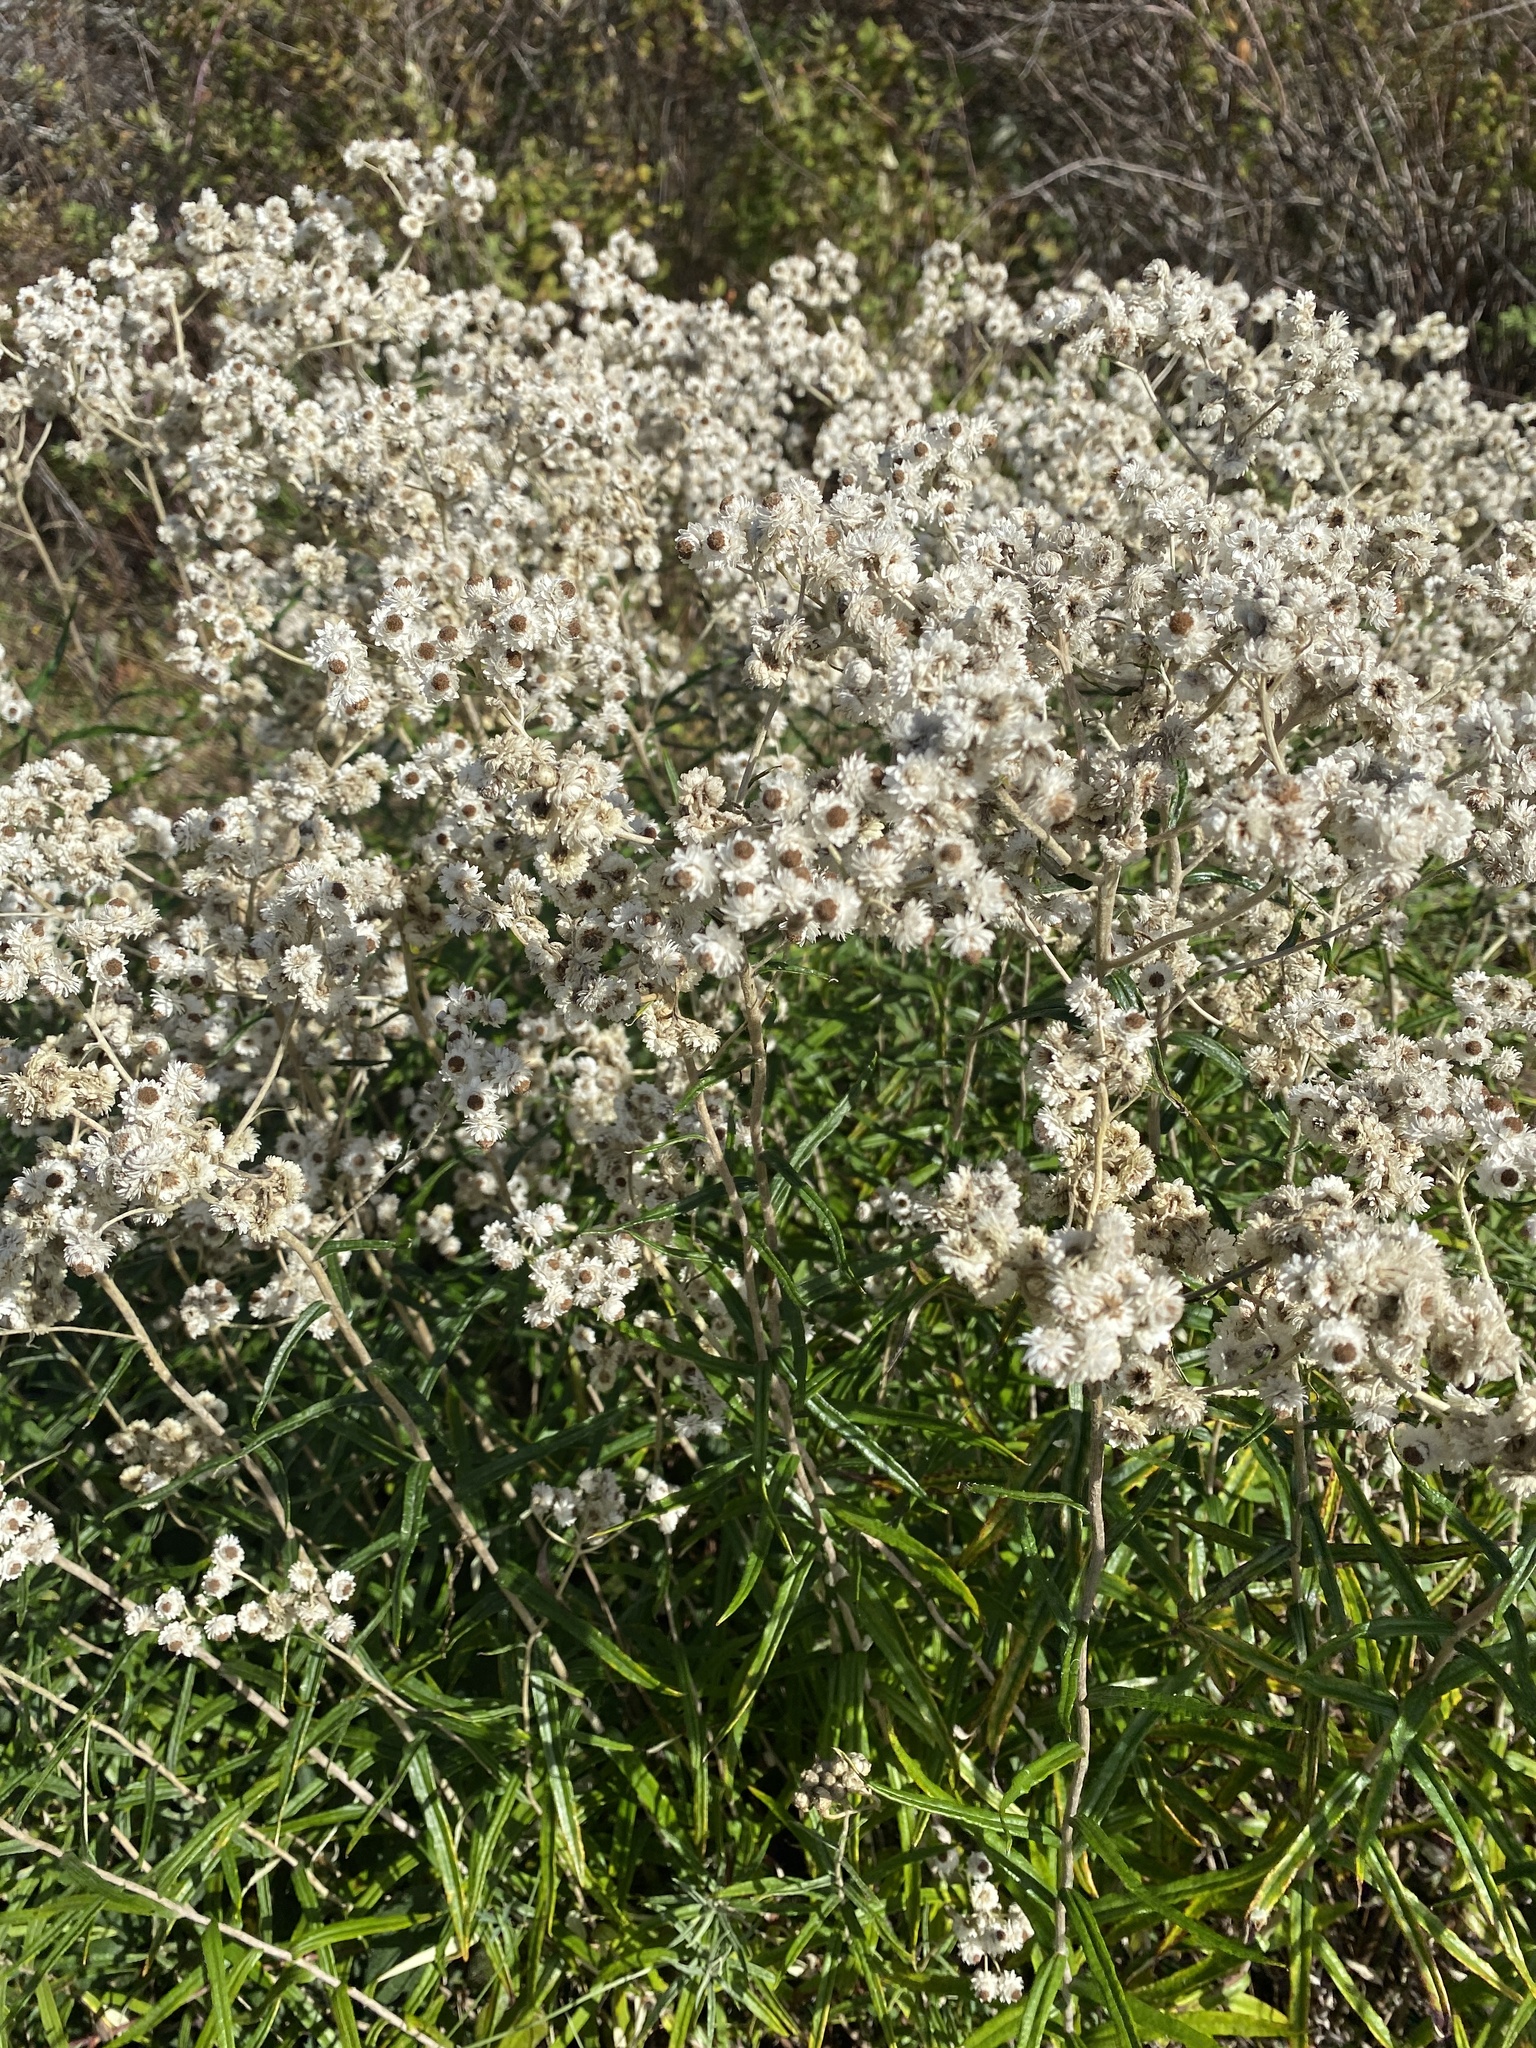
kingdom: Plantae
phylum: Tracheophyta
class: Magnoliopsida
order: Asterales
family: Asteraceae
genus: Anaphalis
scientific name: Anaphalis margaritacea
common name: Pearly everlasting
